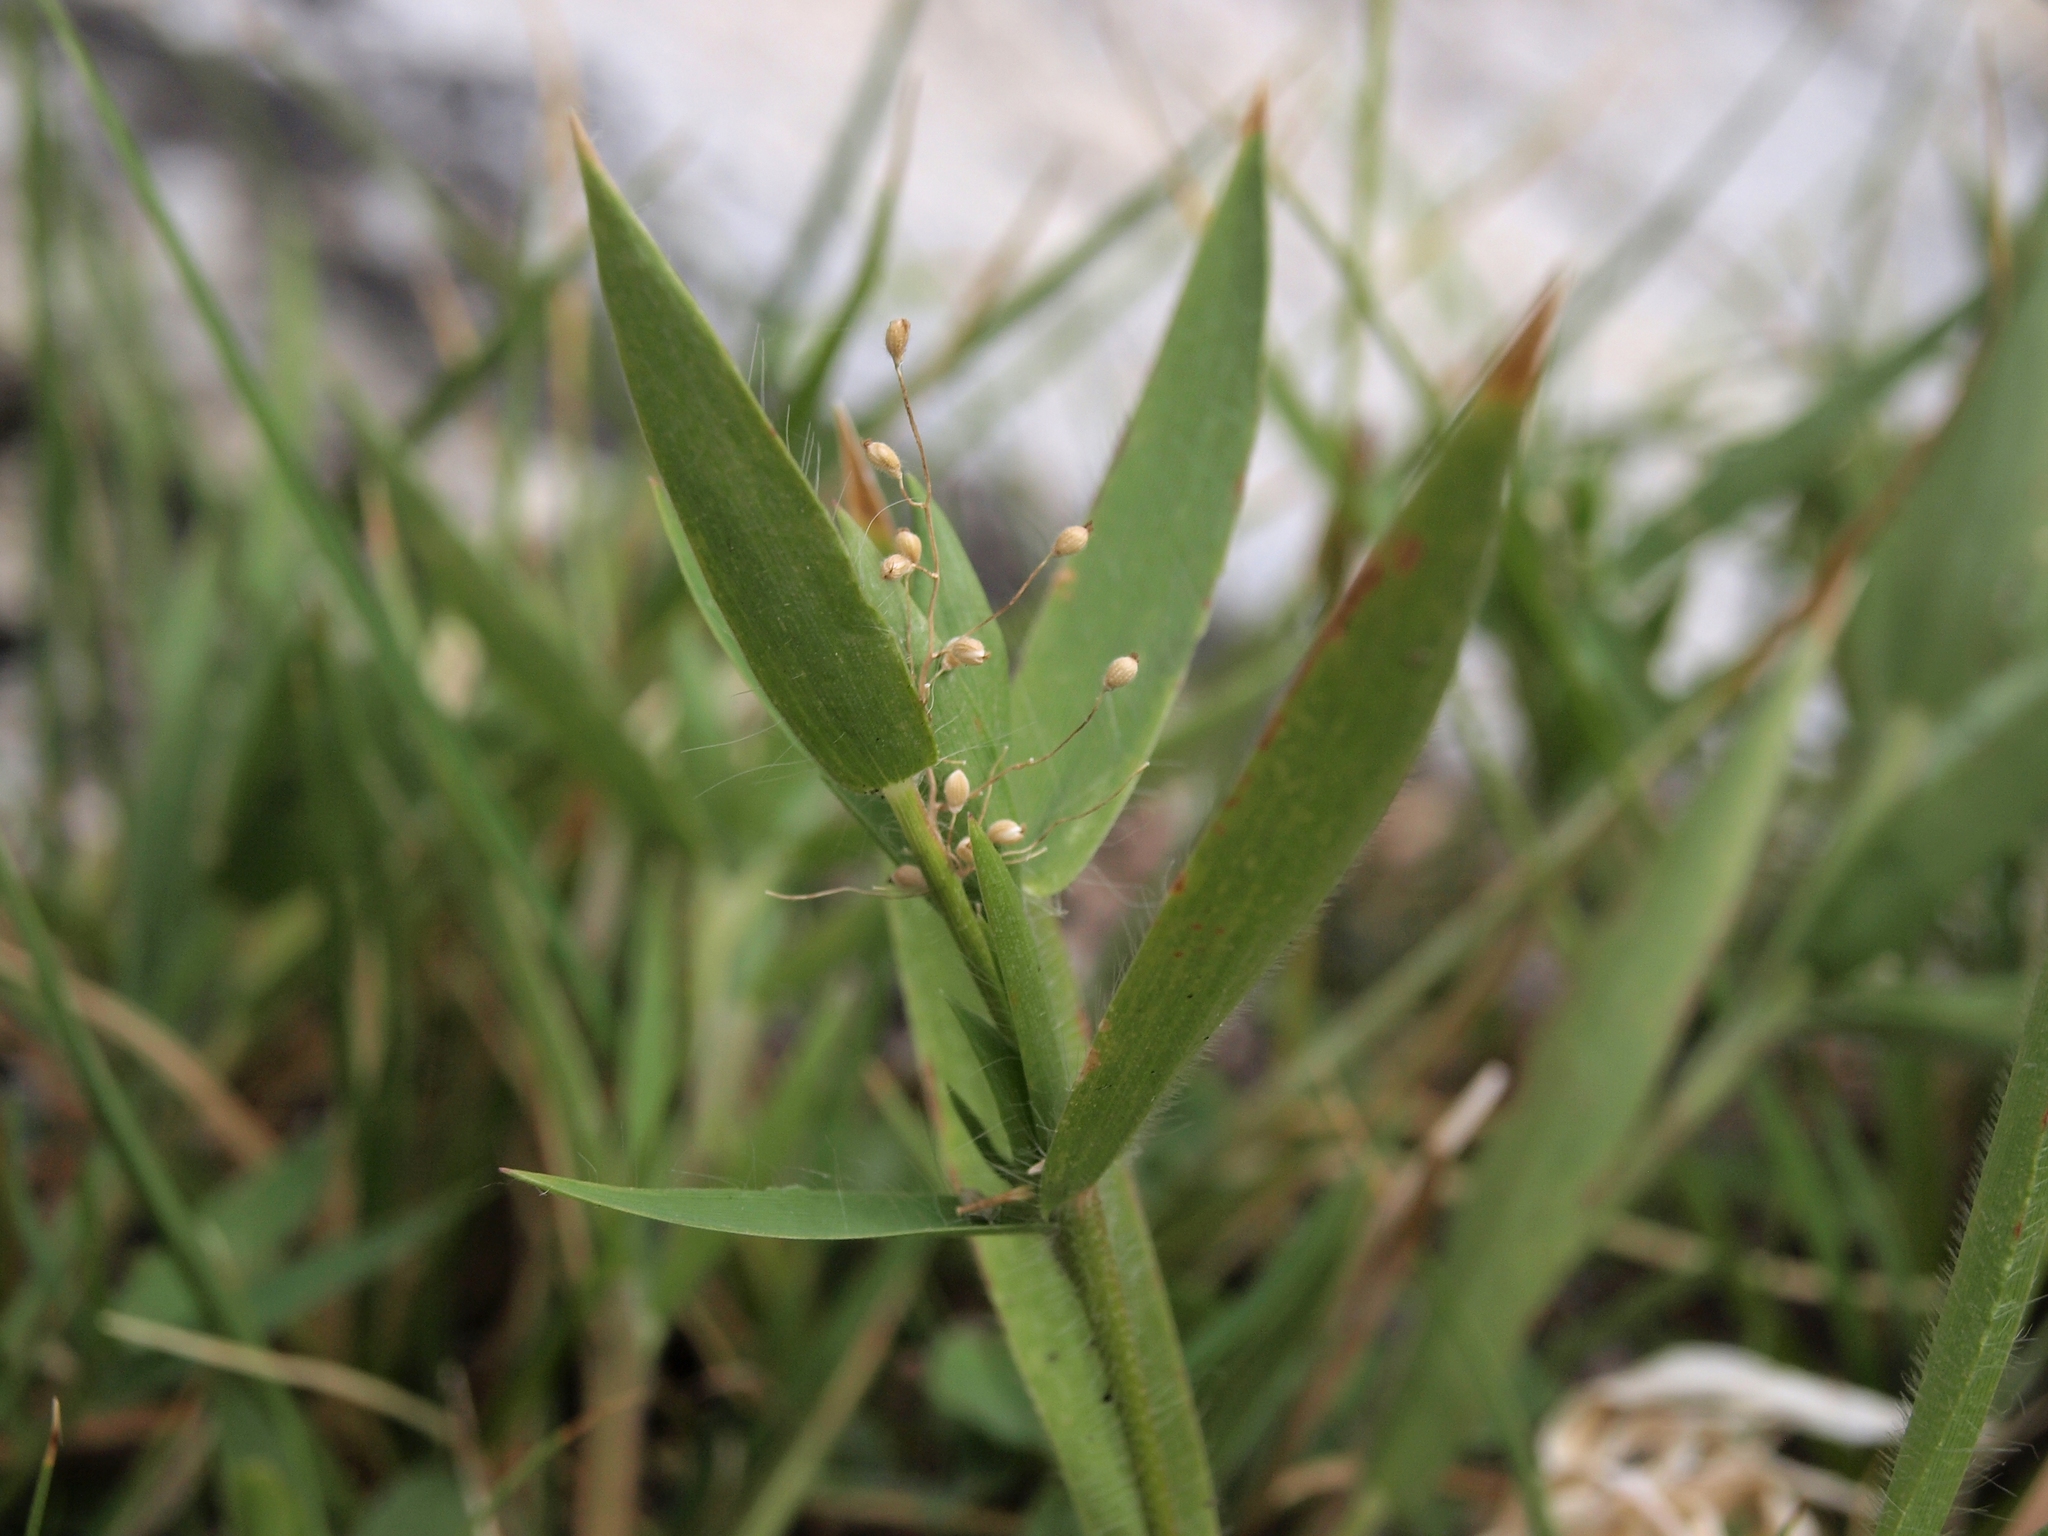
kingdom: Plantae
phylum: Tracheophyta
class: Liliopsida
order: Poales
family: Poaceae
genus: Dichanthelium
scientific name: Dichanthelium lanuginosum
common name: Woolly panicgrass
